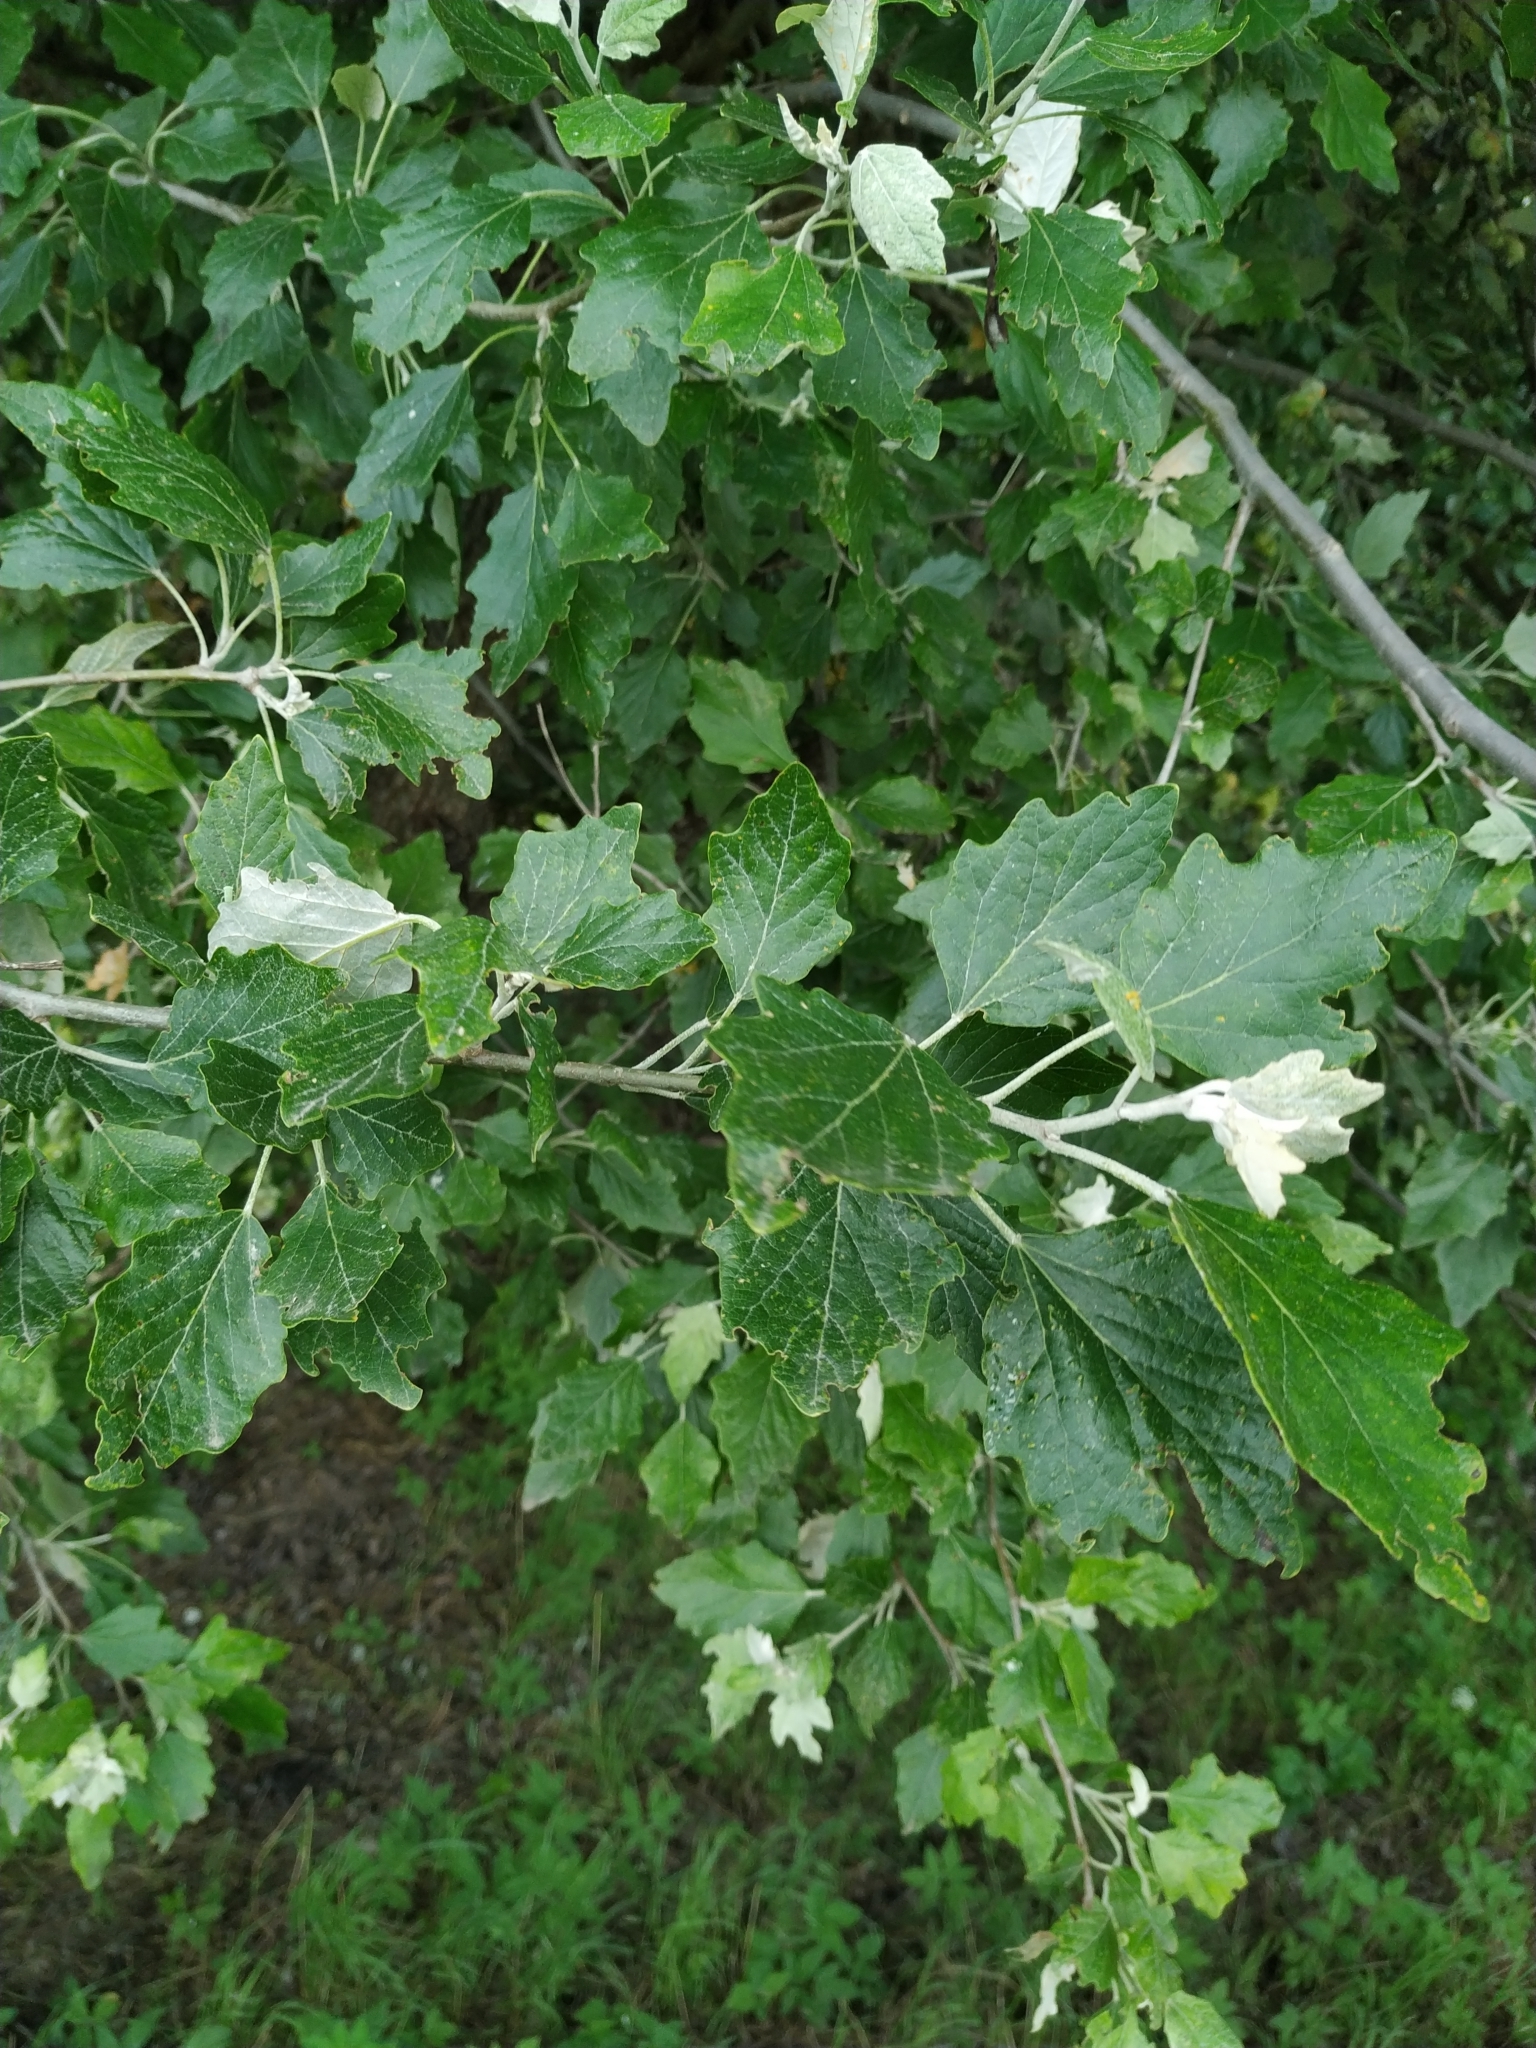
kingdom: Plantae
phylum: Tracheophyta
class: Magnoliopsida
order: Malpighiales
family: Salicaceae
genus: Populus
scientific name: Populus alba
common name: White poplar
